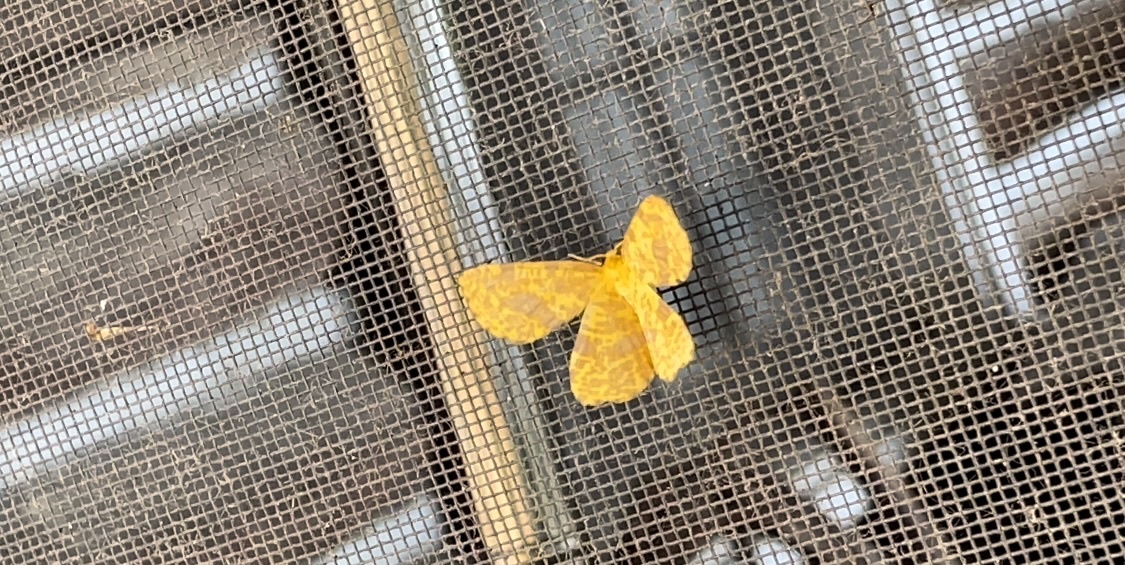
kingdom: Animalia
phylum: Arthropoda
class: Insecta
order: Lepidoptera
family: Geometridae
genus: Xanthotype
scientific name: Xanthotype
